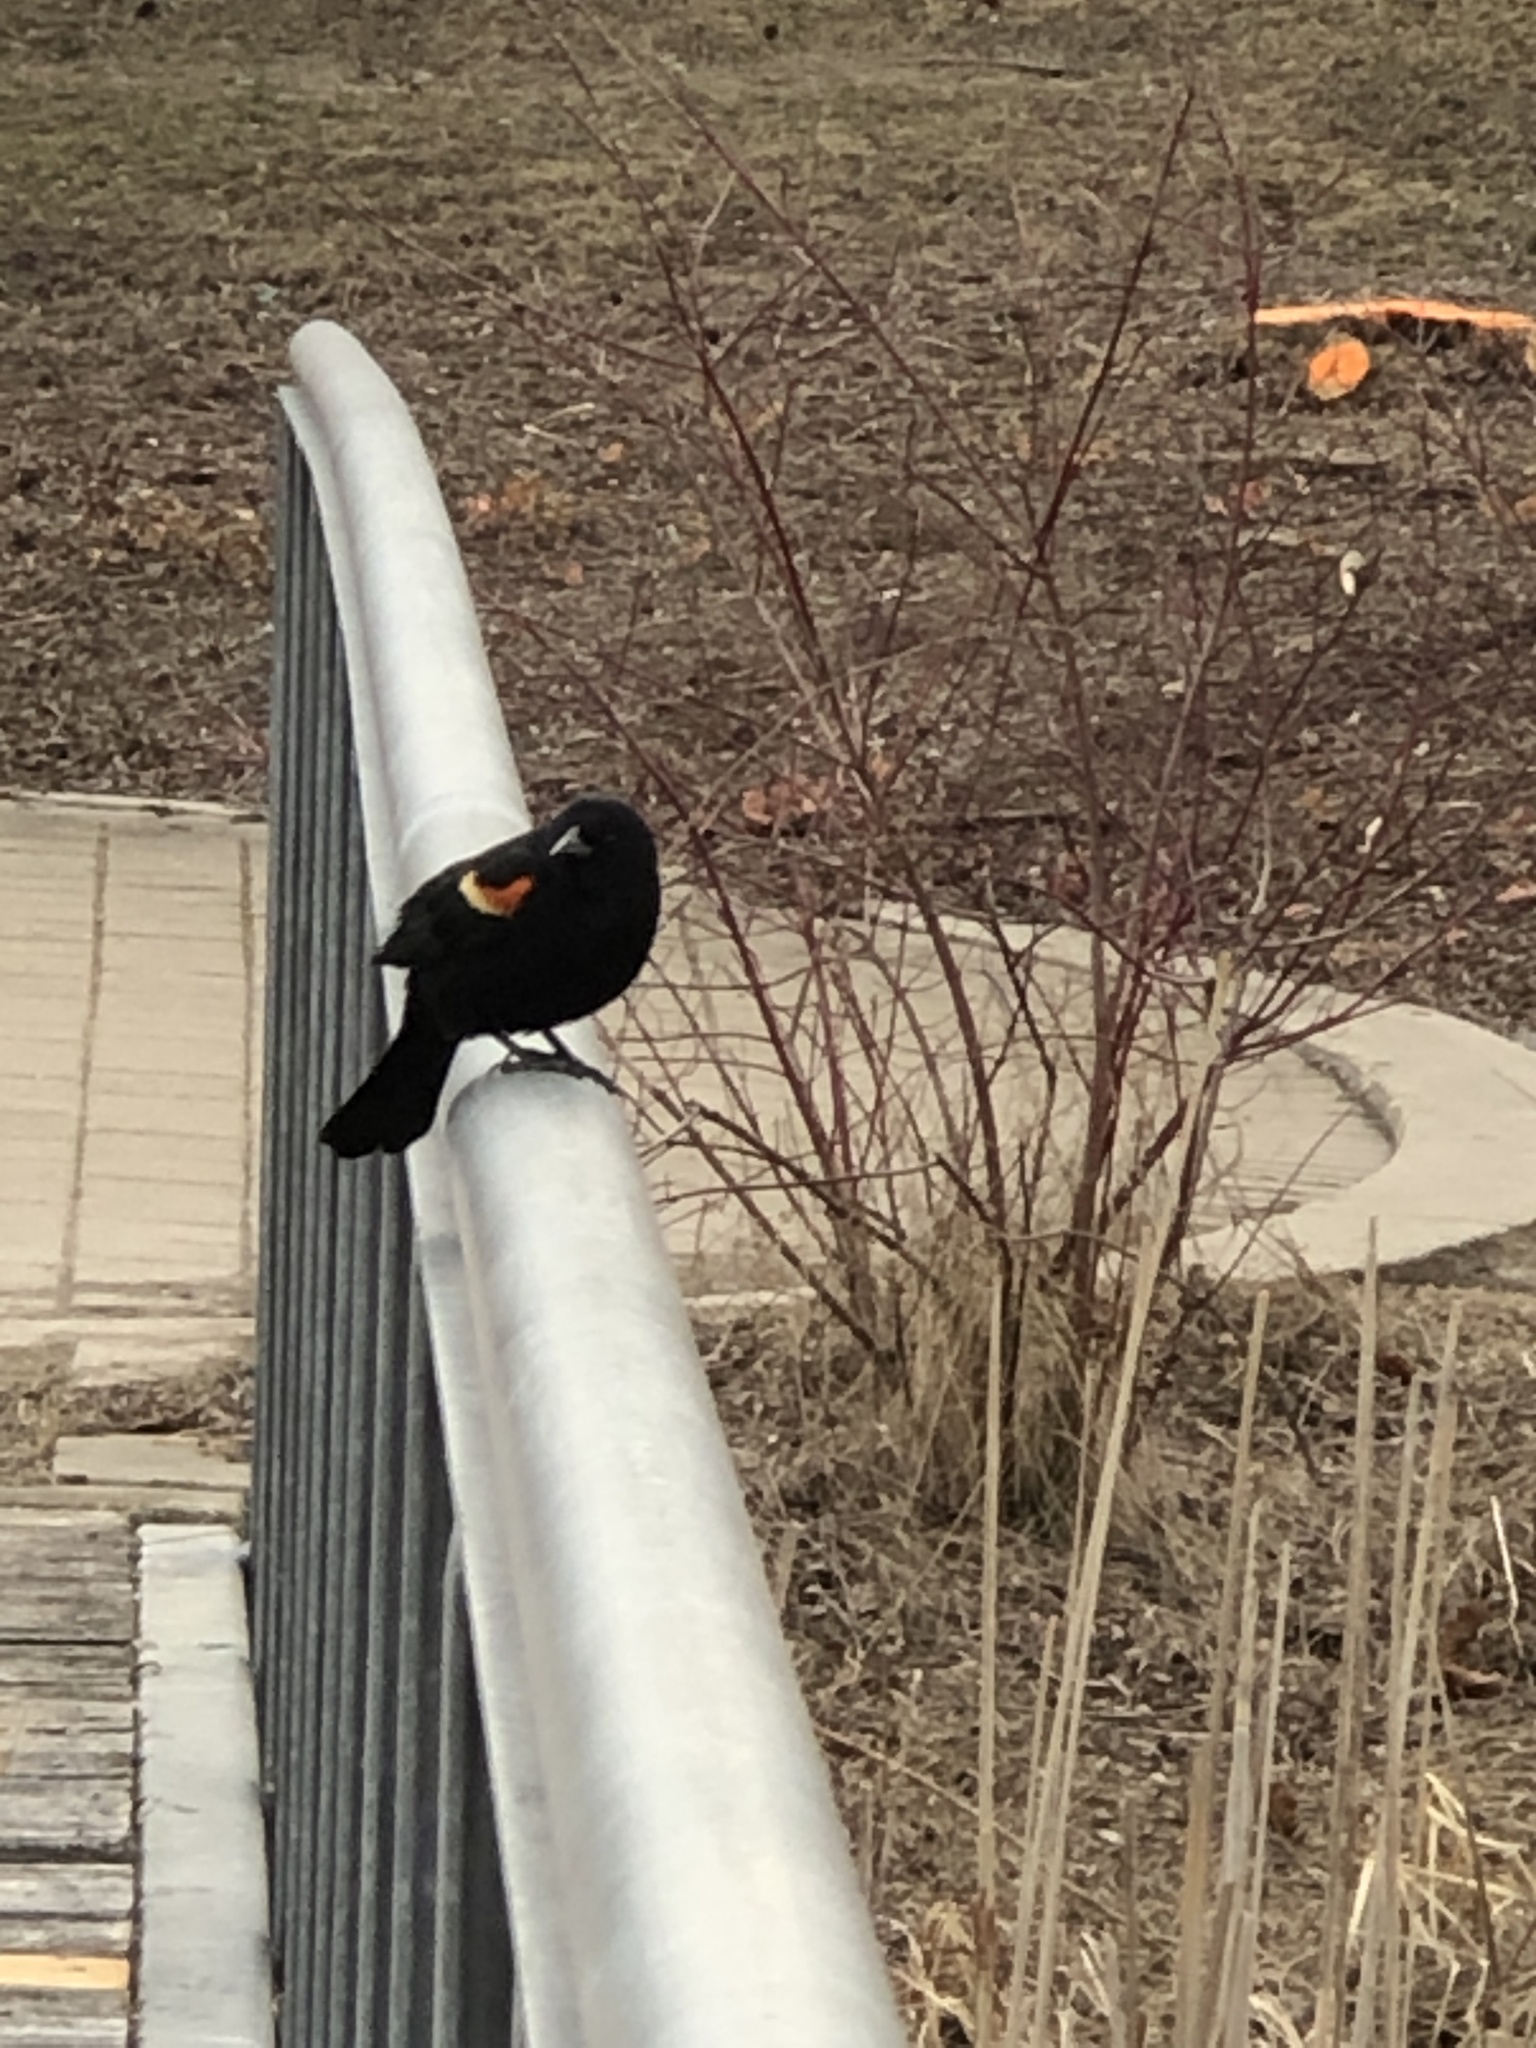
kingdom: Animalia
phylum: Chordata
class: Aves
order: Passeriformes
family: Icteridae
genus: Agelaius
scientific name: Agelaius phoeniceus
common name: Red-winged blackbird
